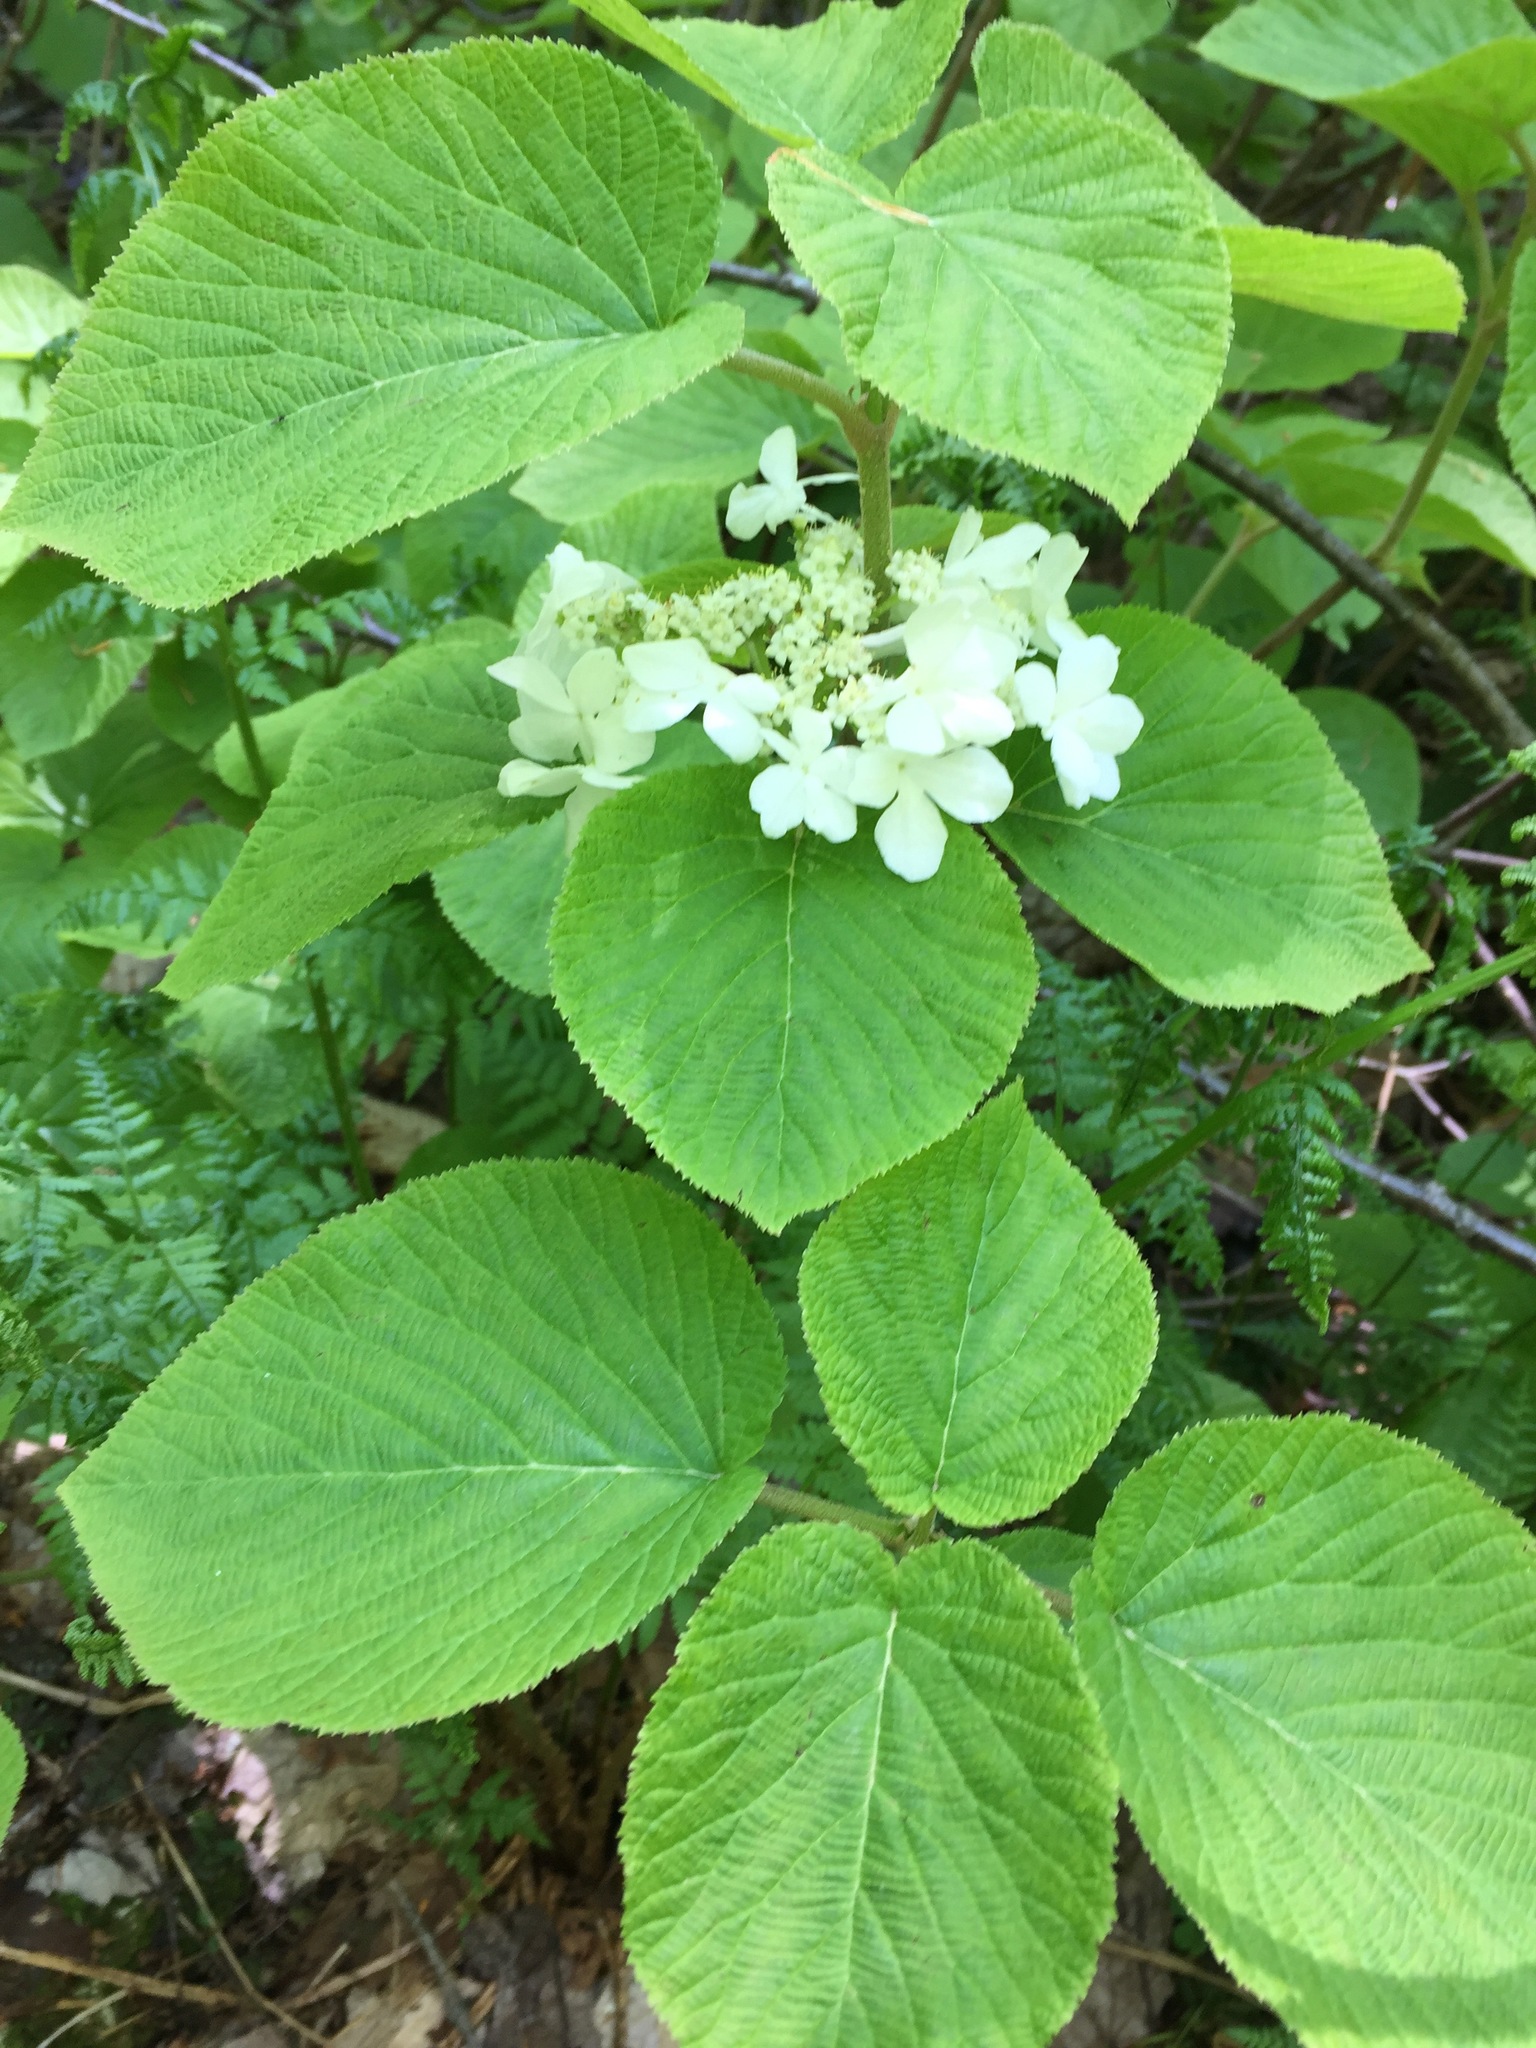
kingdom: Plantae
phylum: Tracheophyta
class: Magnoliopsida
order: Dipsacales
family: Viburnaceae
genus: Viburnum
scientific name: Viburnum lantanoides
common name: Hobblebush
